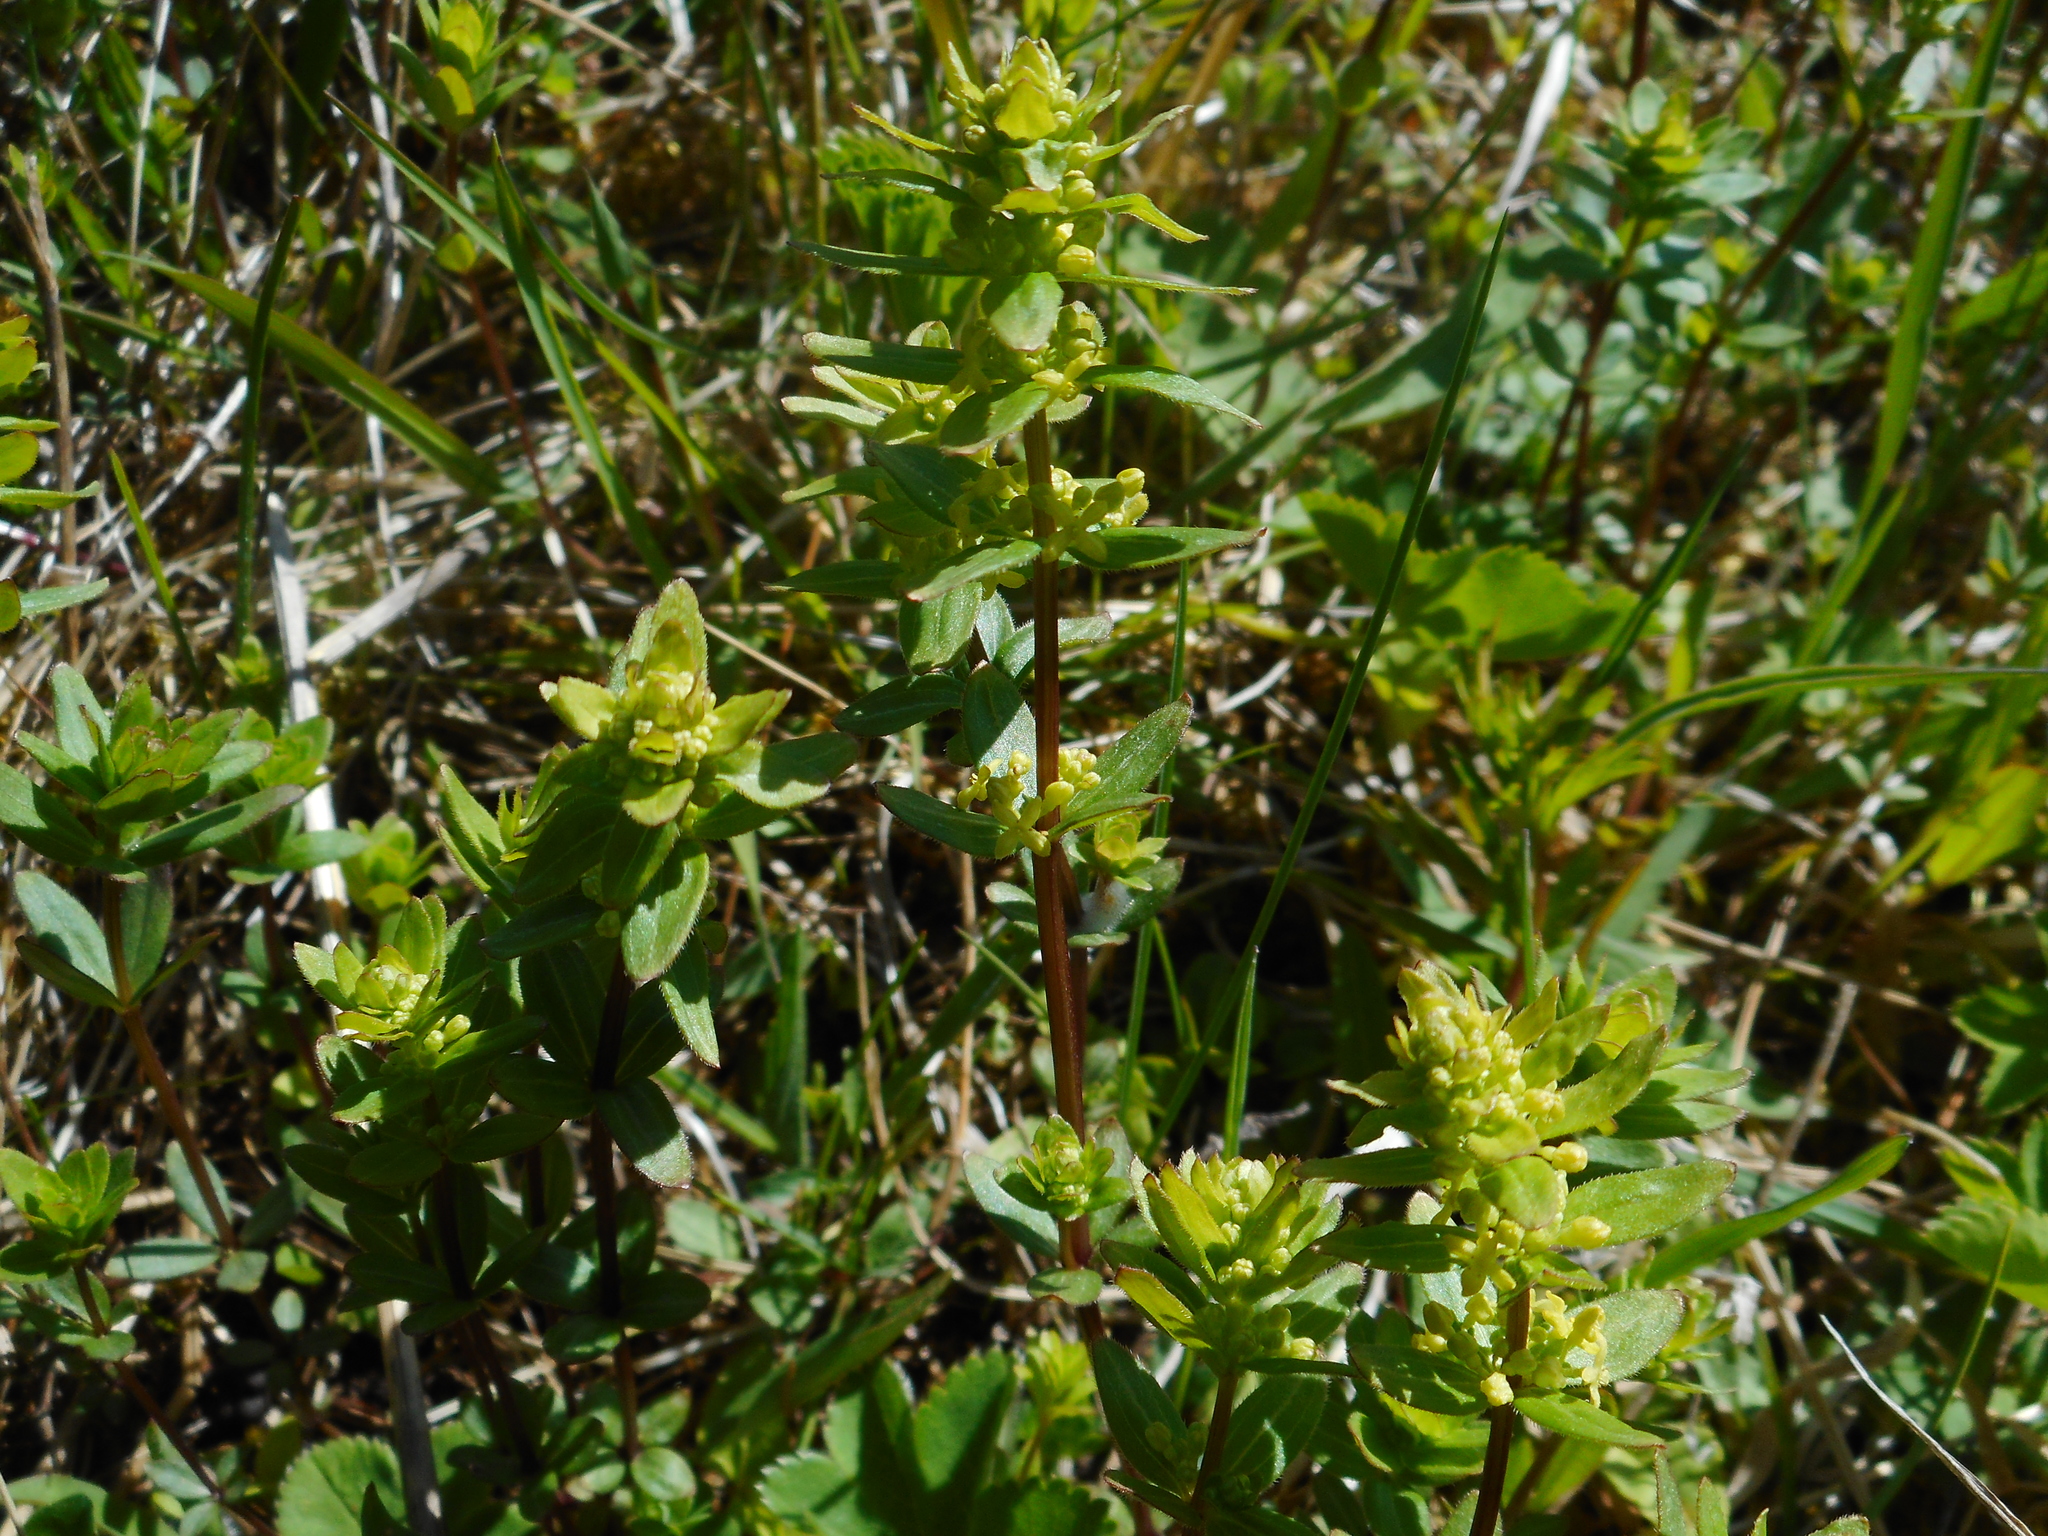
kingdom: Plantae
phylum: Tracheophyta
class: Magnoliopsida
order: Gentianales
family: Rubiaceae
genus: Cruciata
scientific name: Cruciata glabra
